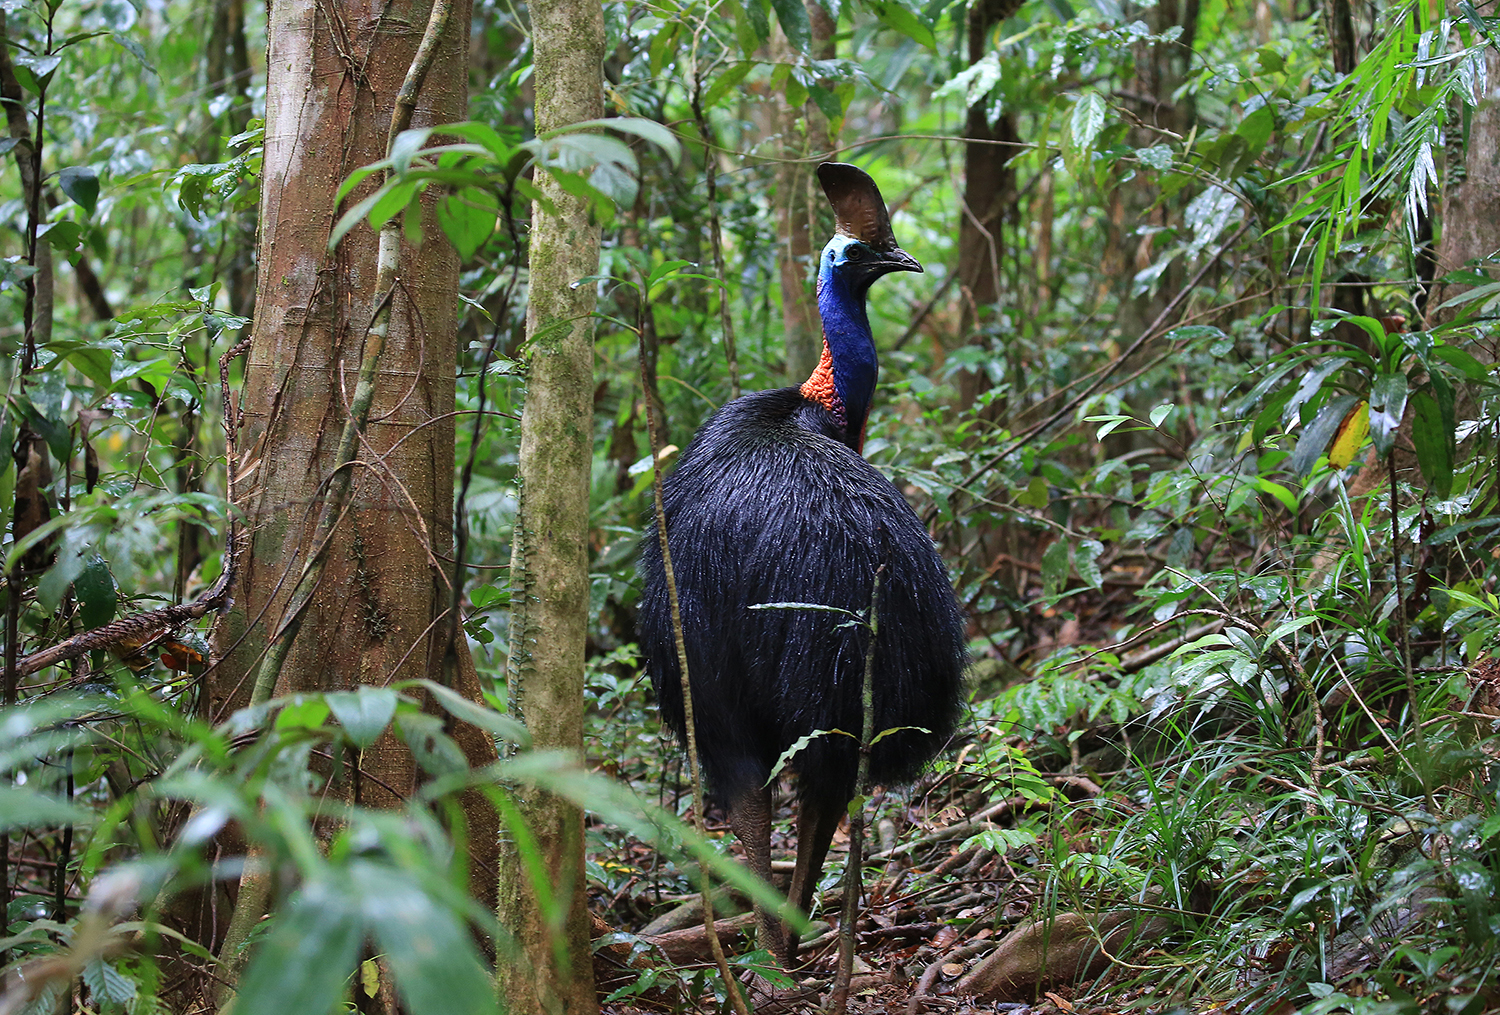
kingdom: Animalia
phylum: Chordata
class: Aves
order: Casuariiformes
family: Casuariidae
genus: Casuarius
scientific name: Casuarius casuarius
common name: Southern cassowary
